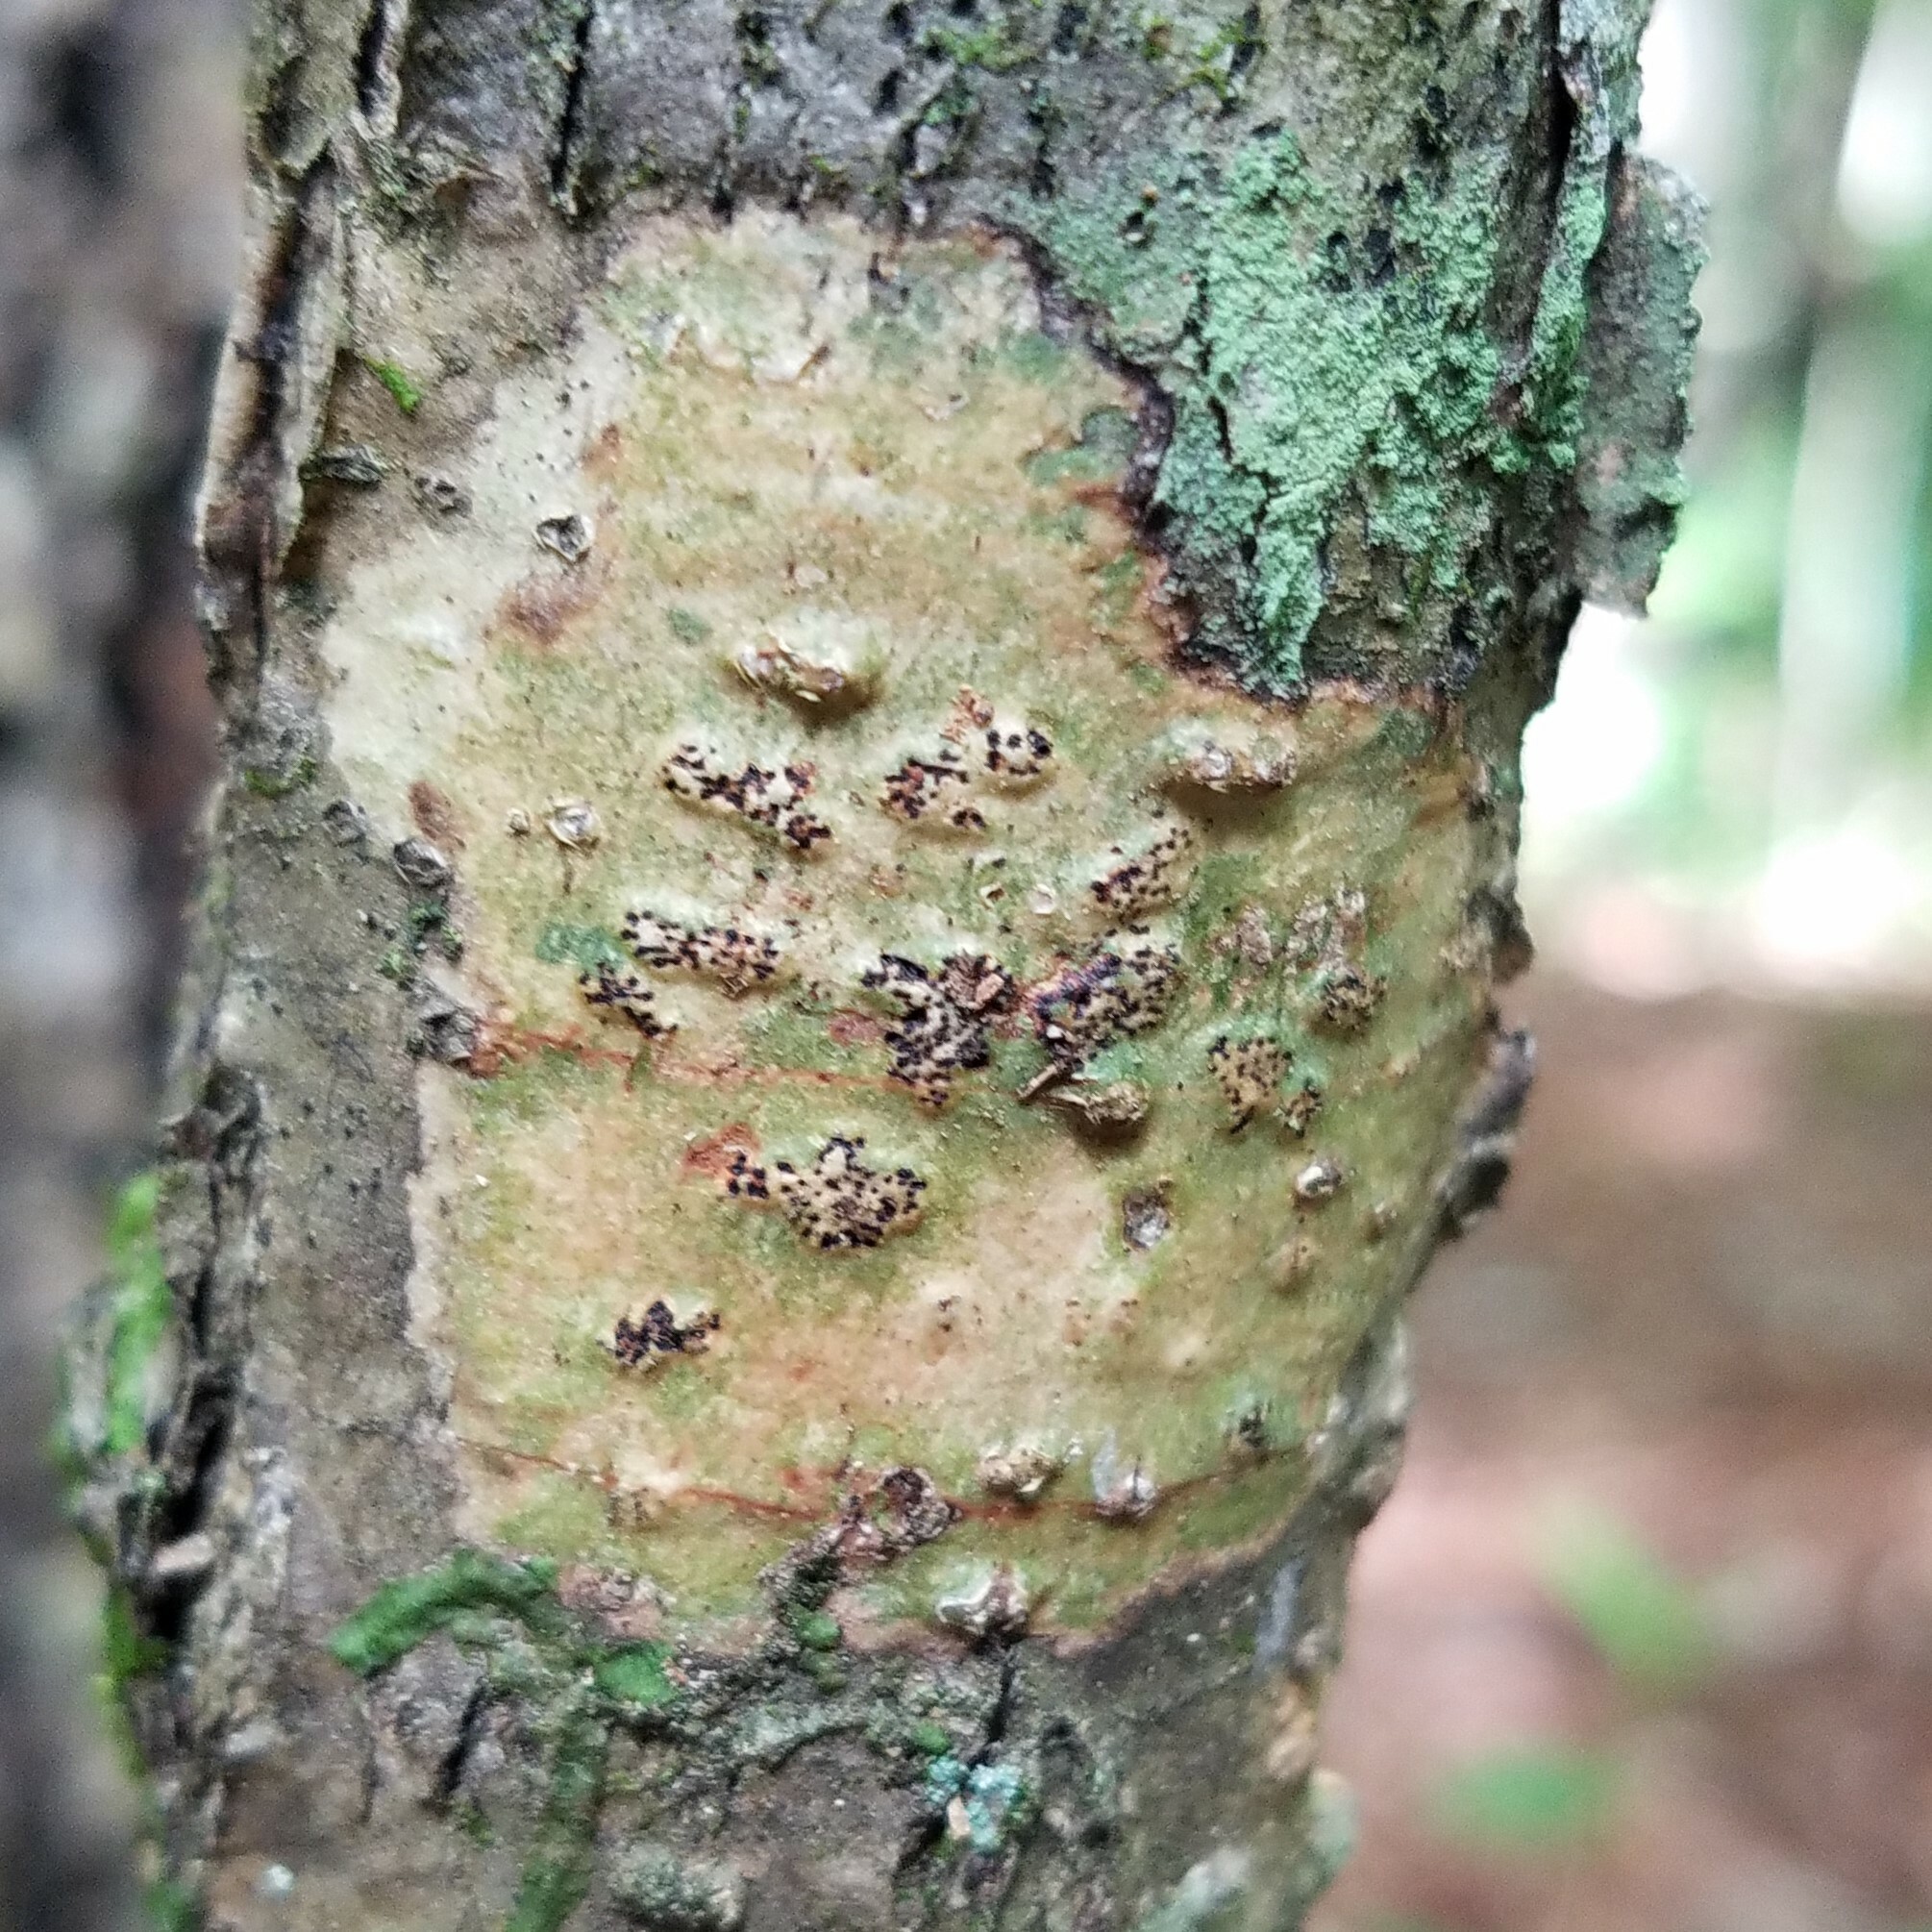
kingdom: Fungi
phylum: Ascomycota
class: Dothideomycetes
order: Trypetheliales
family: Trypetheliaceae
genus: Viridothelium
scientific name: Viridothelium virens
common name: Speckled blister lichen
